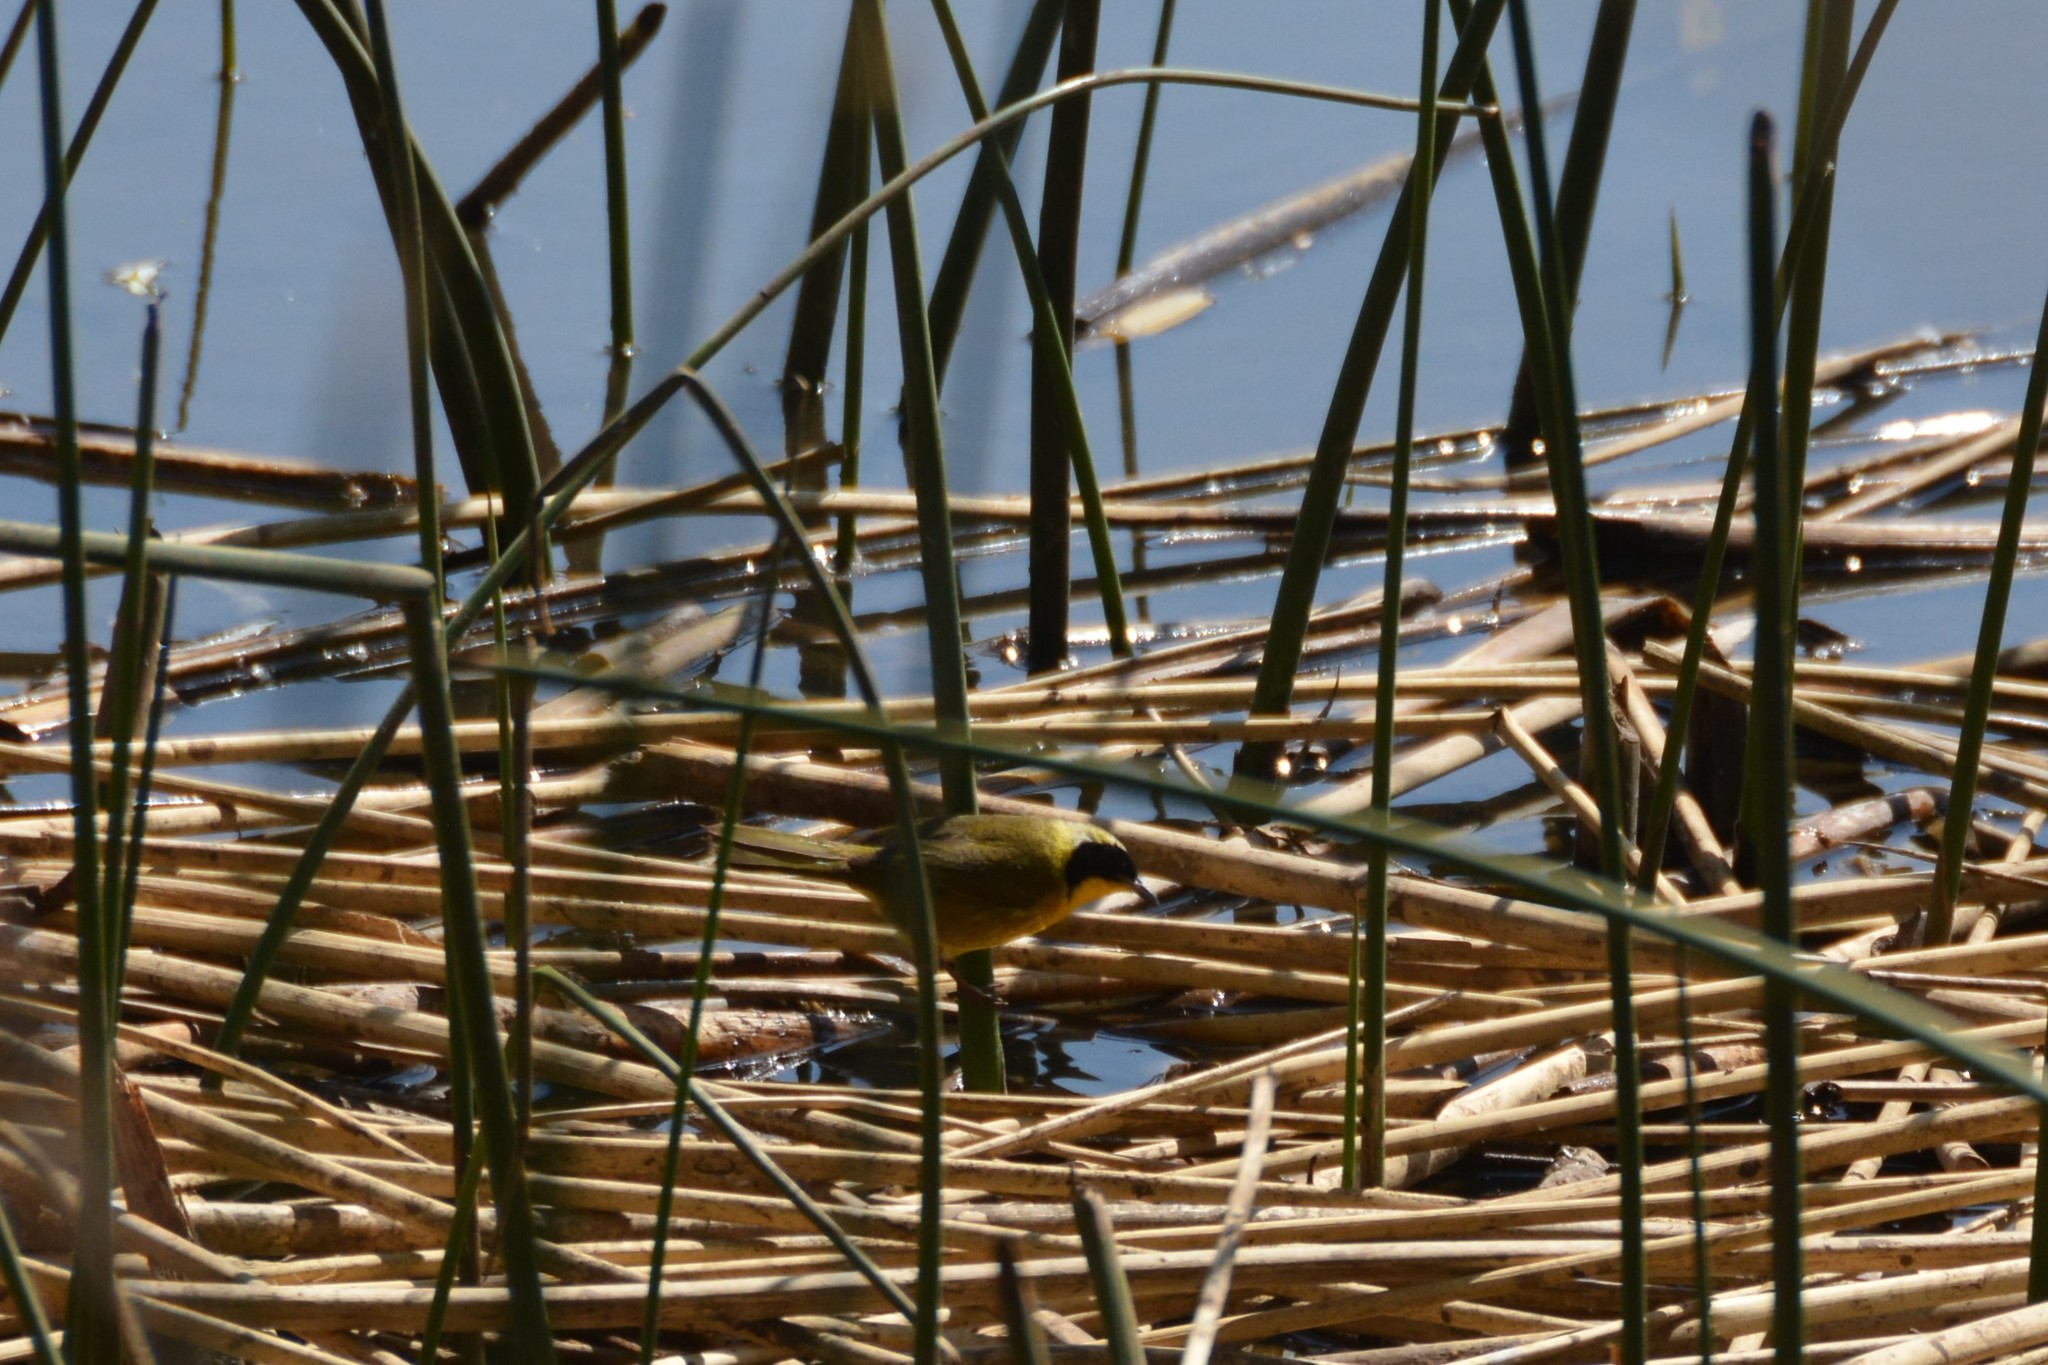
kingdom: Animalia
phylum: Chordata
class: Aves
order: Passeriformes
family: Parulidae
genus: Geothlypis
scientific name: Geothlypis trichas
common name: Common yellowthroat
